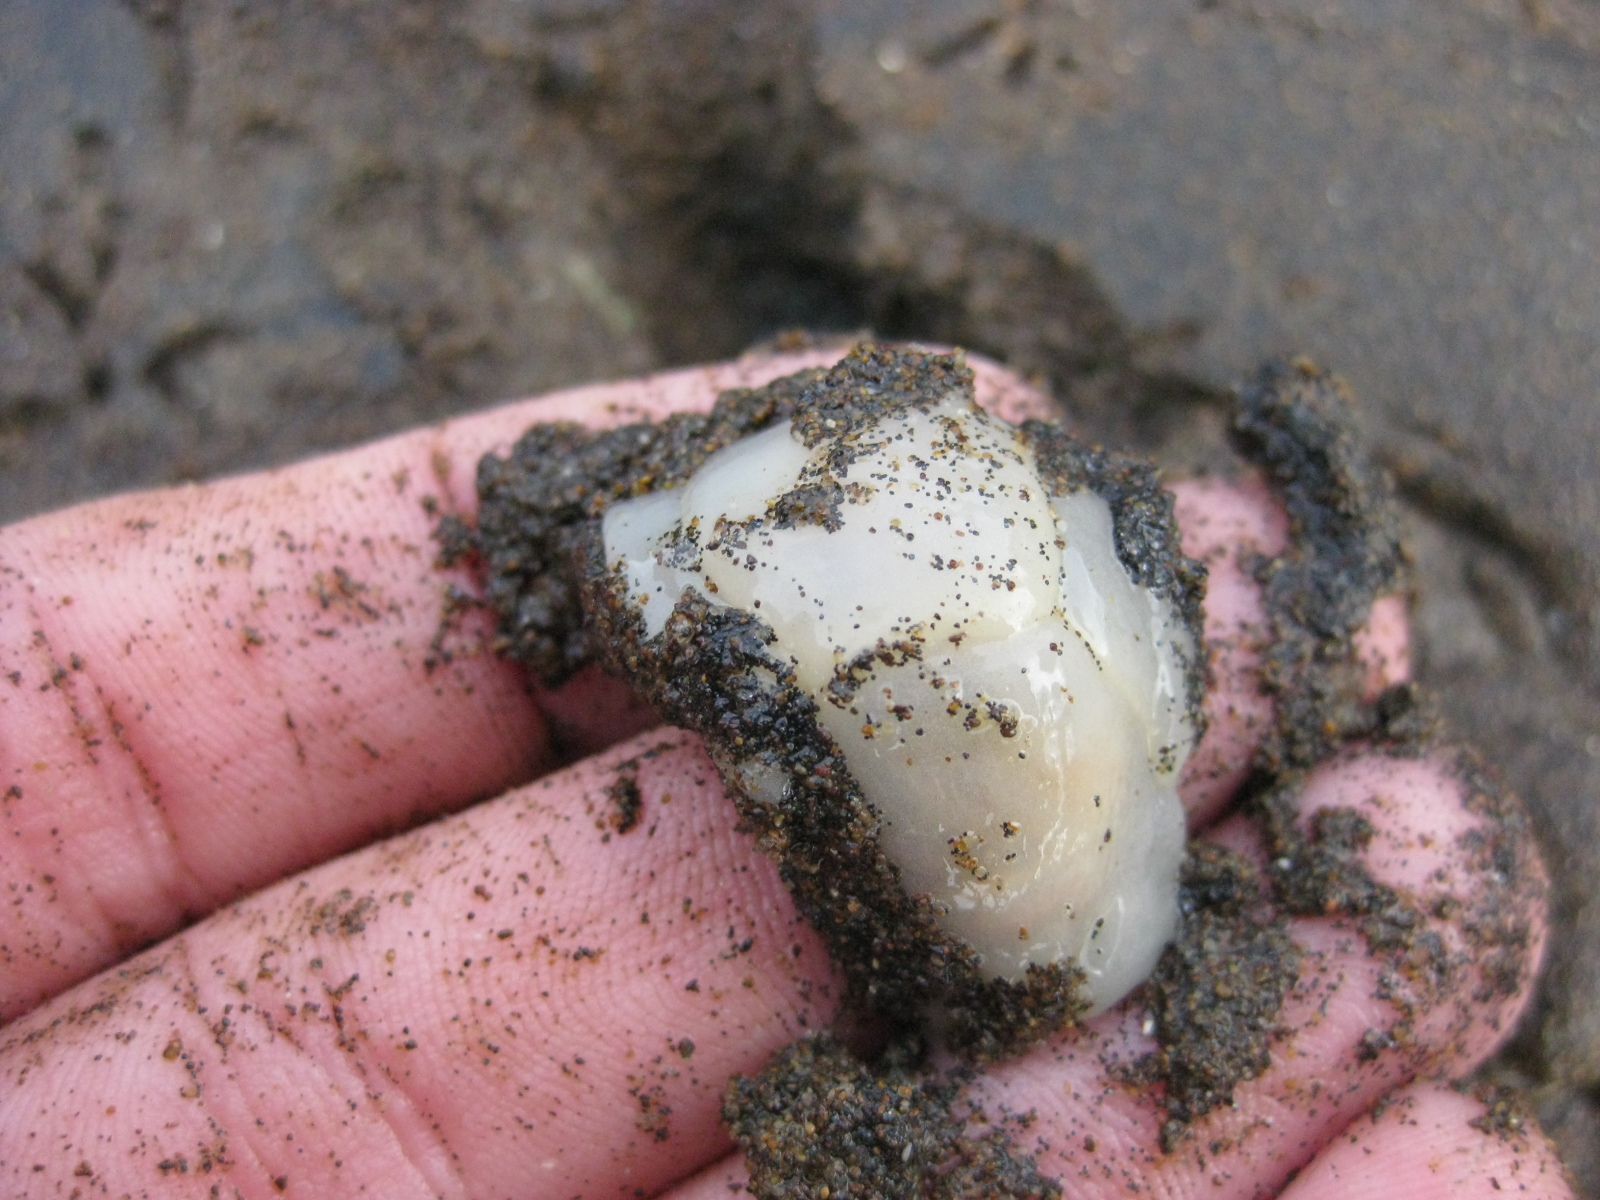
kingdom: Animalia
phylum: Mollusca
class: Gastropoda
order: Cephalaspidea
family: Philinidae
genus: Philine
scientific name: Philine
